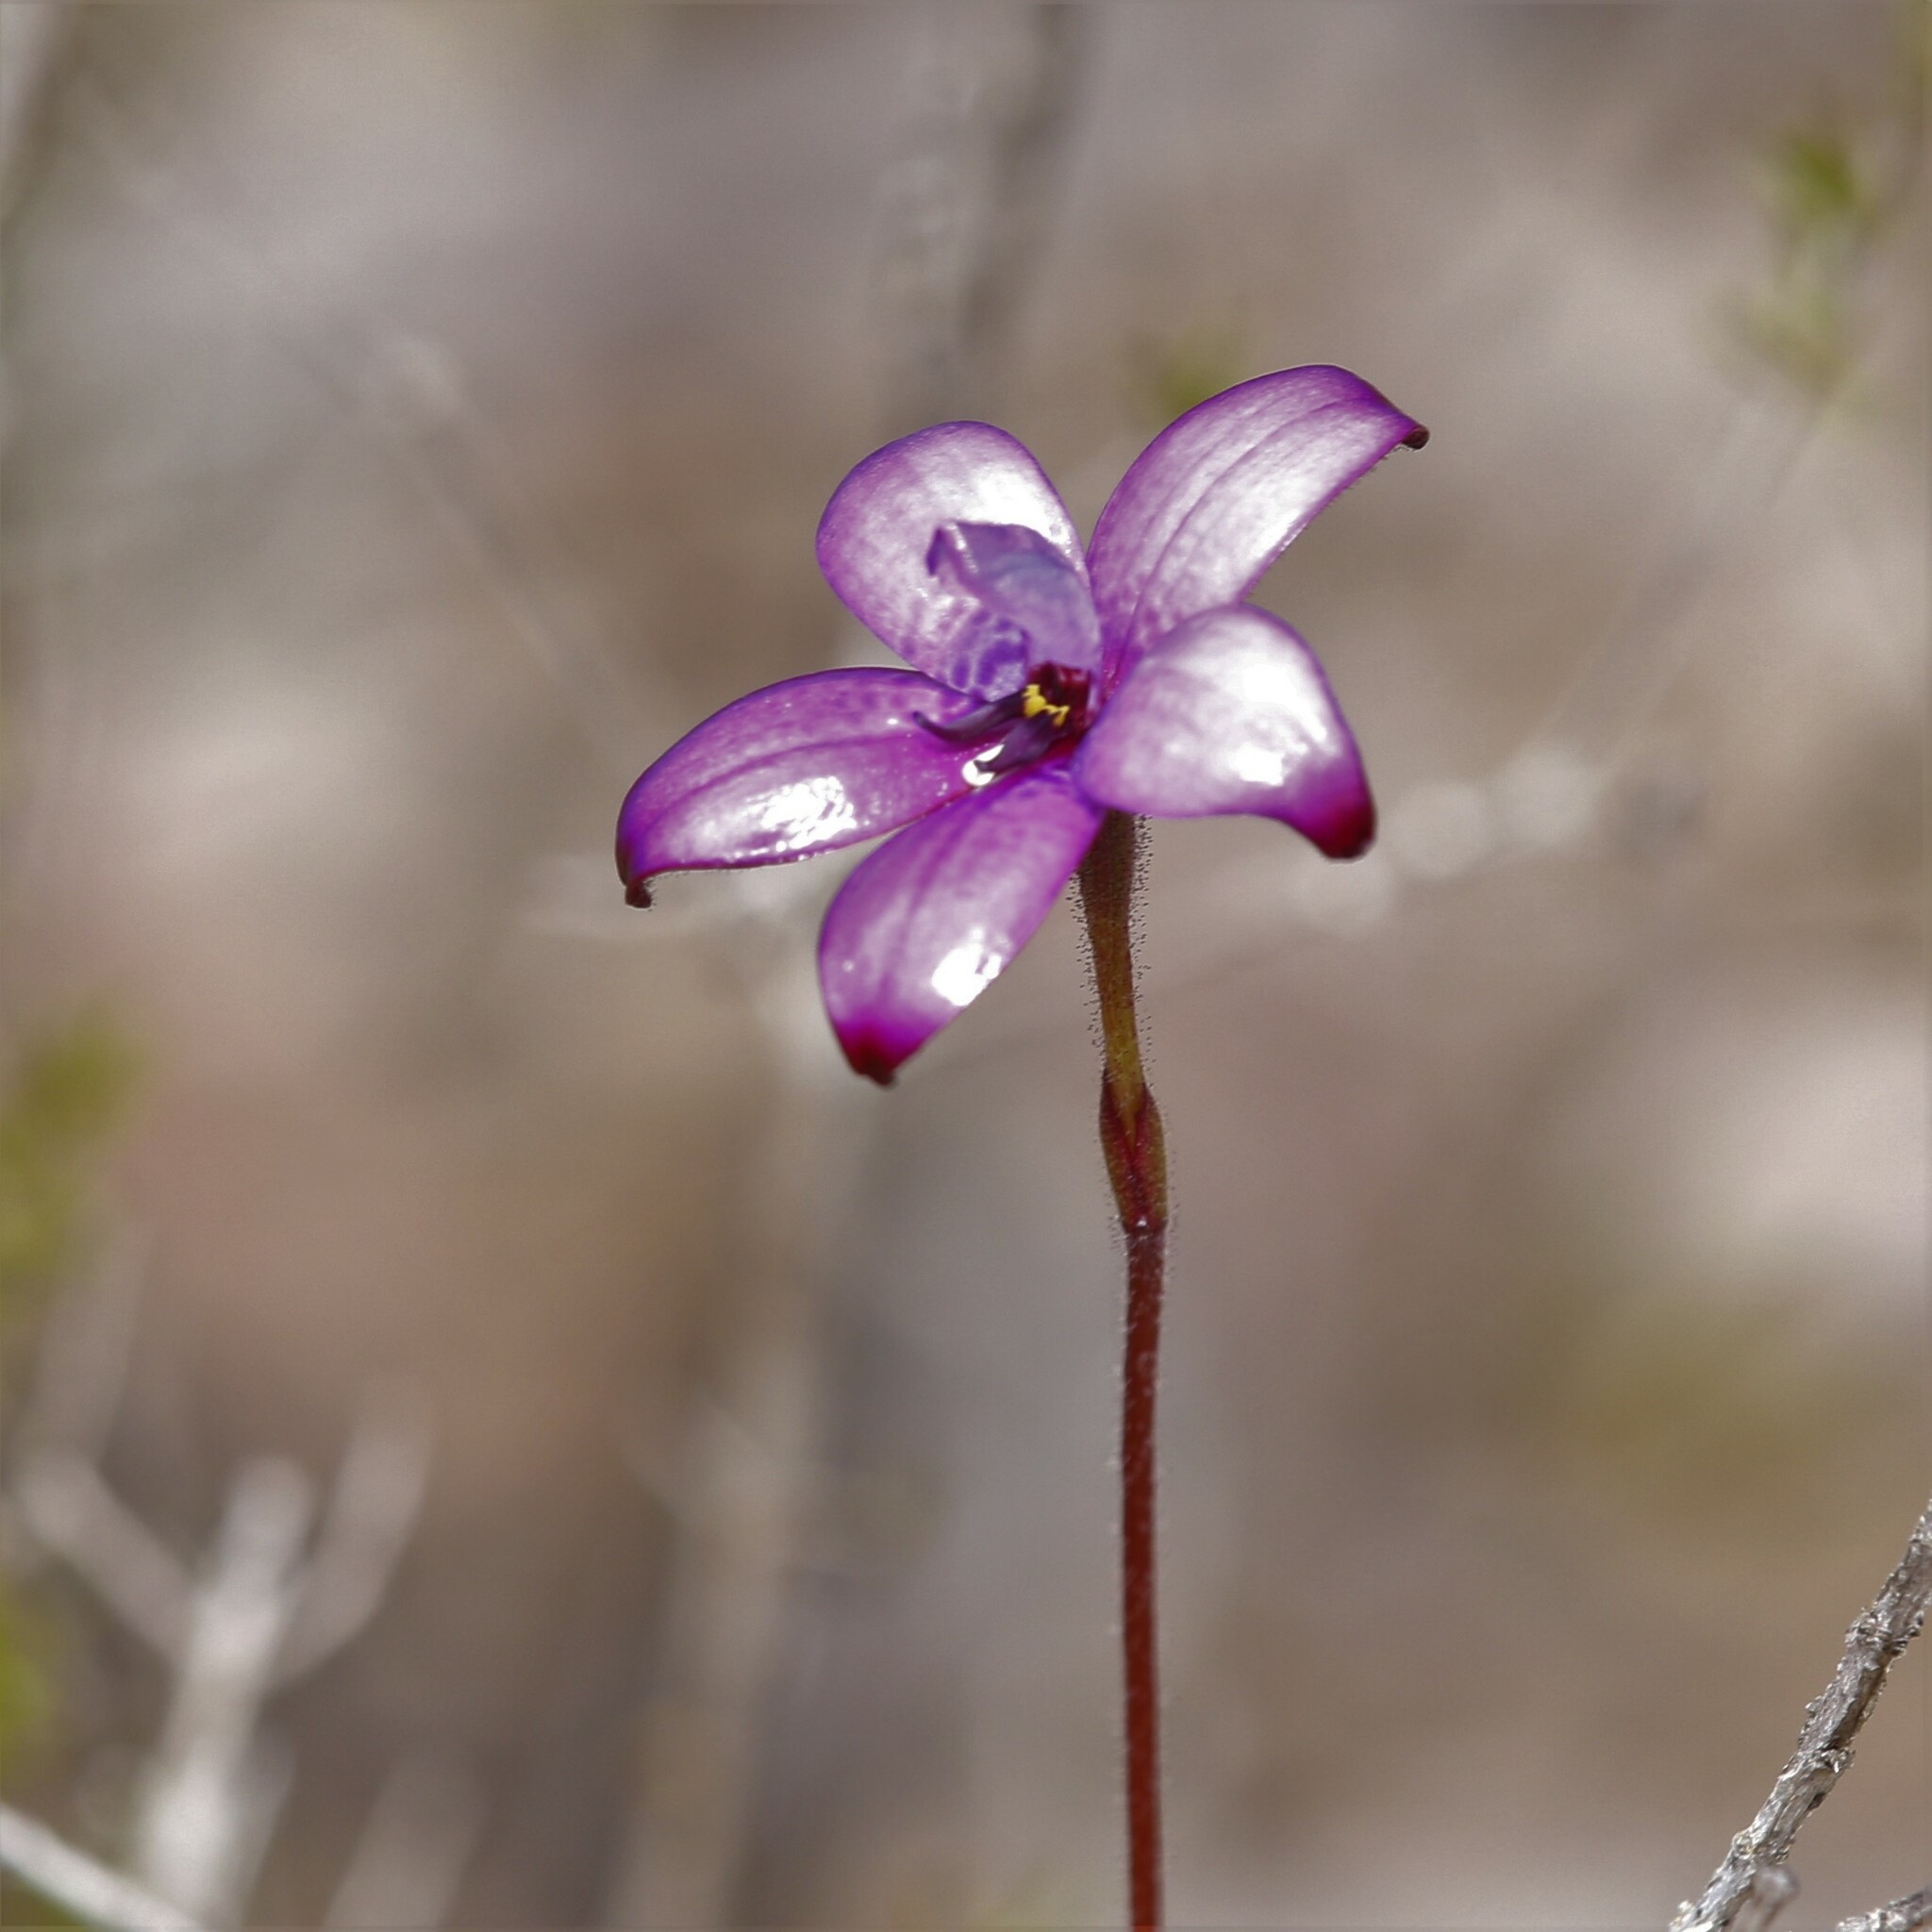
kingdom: Plantae
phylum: Tracheophyta
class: Liliopsida
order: Asparagales
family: Orchidaceae
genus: Caladenia
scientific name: Caladenia brunonis
